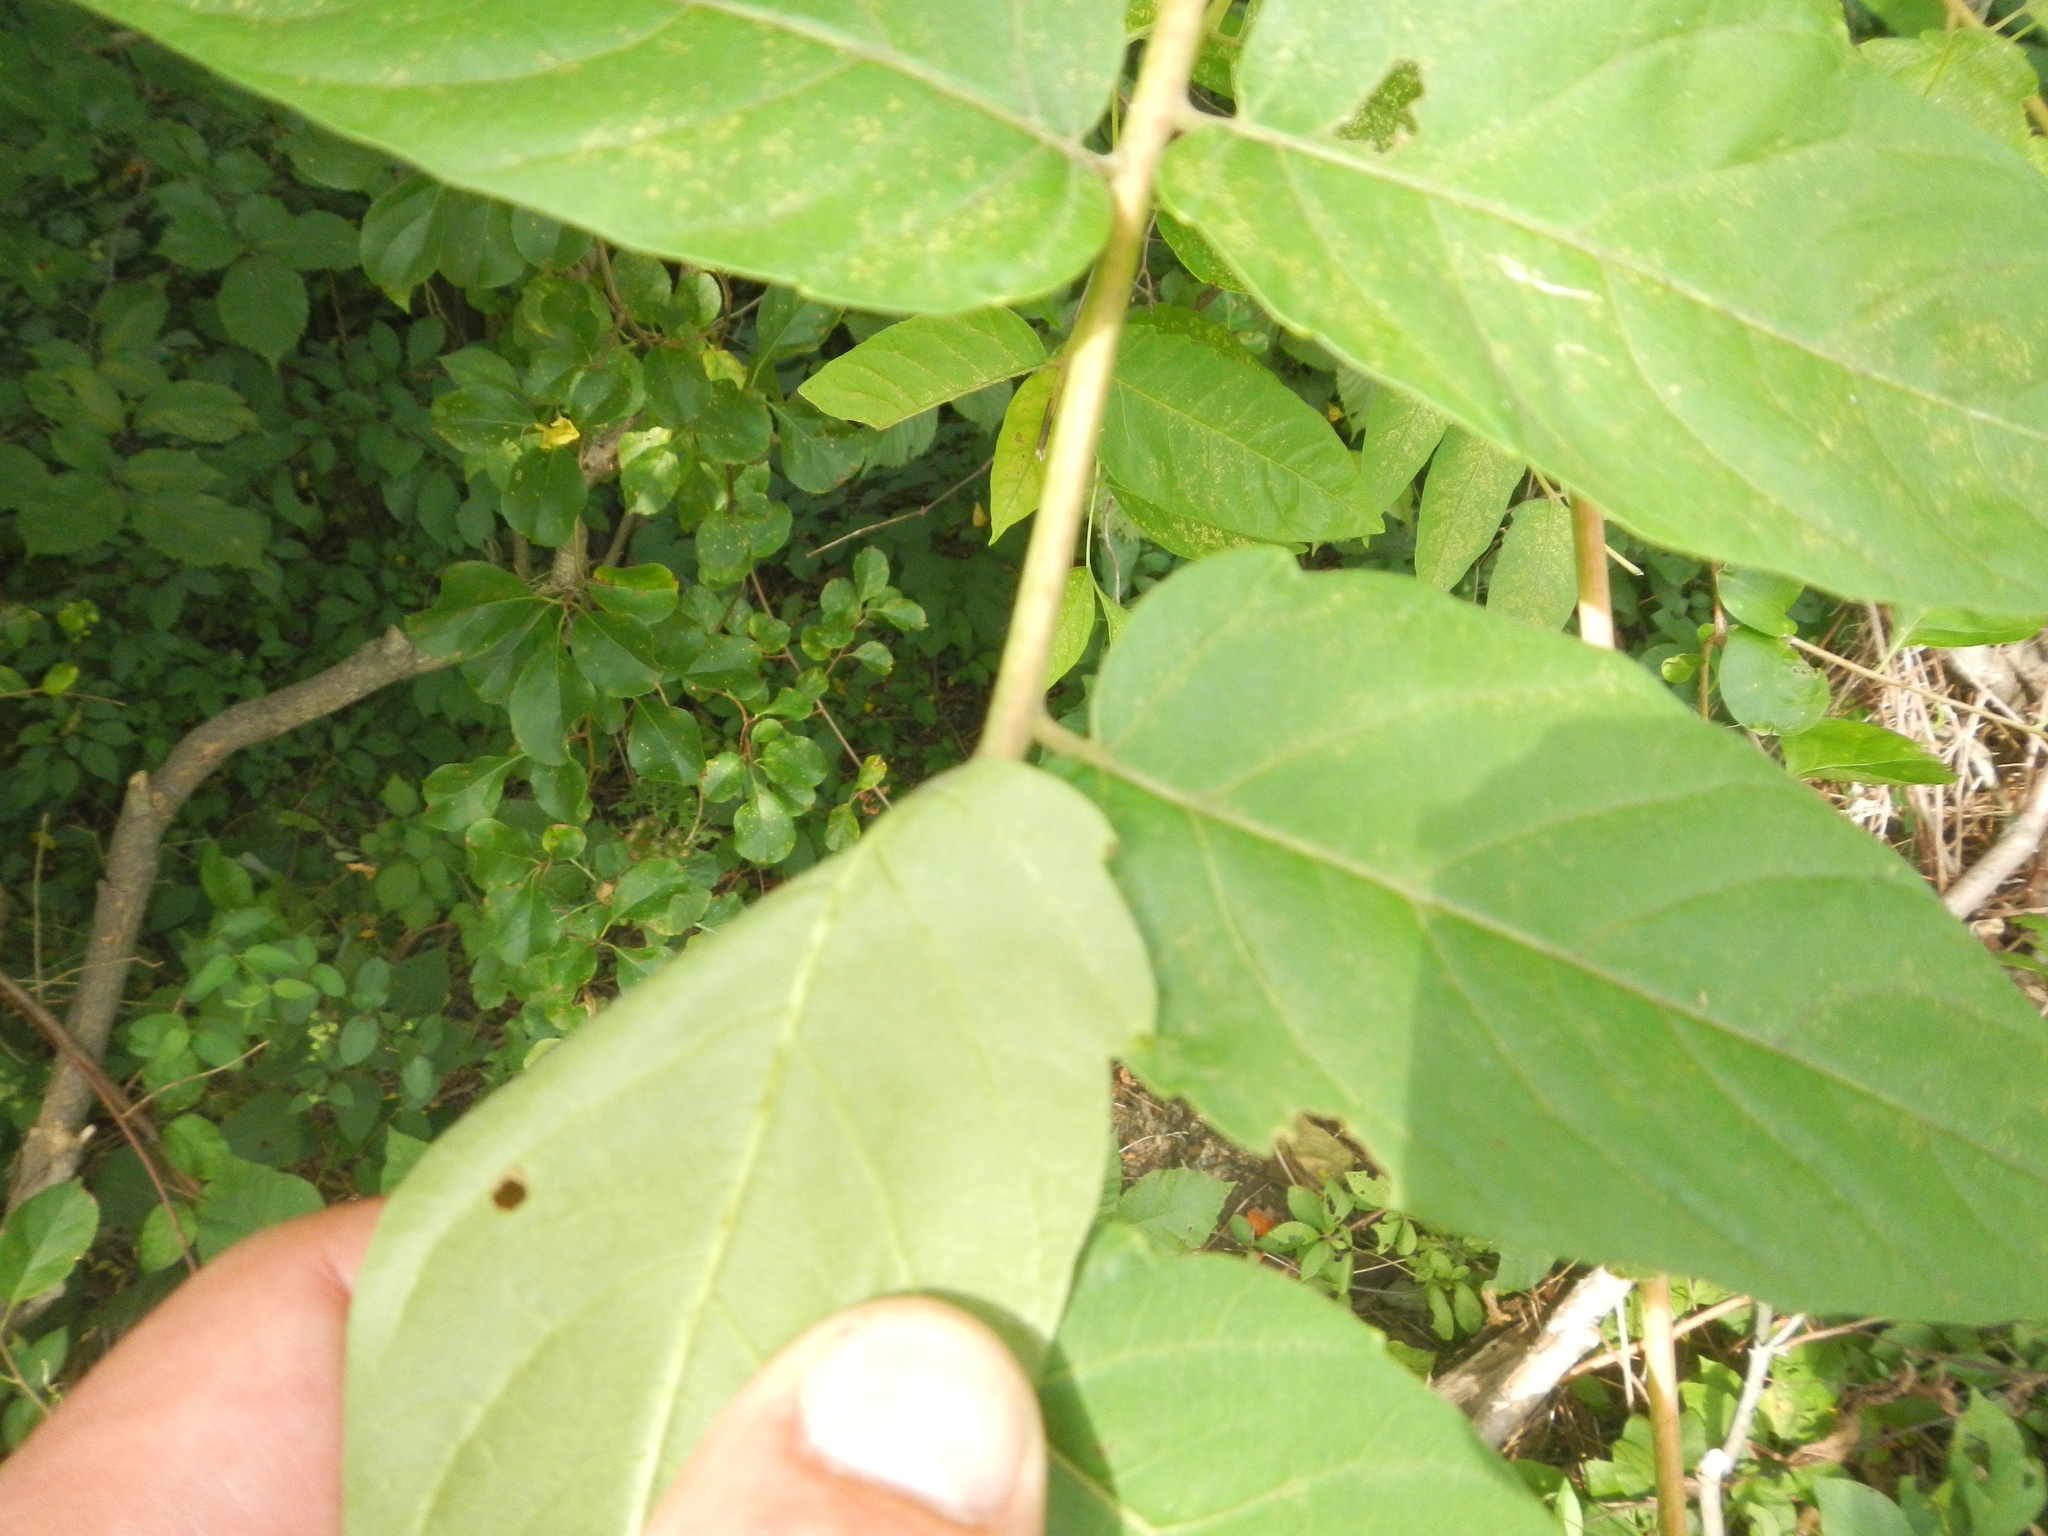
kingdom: Plantae
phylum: Tracheophyta
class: Magnoliopsida
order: Sapindales
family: Simaroubaceae
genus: Ailanthus
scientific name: Ailanthus altissima
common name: Tree-of-heaven
